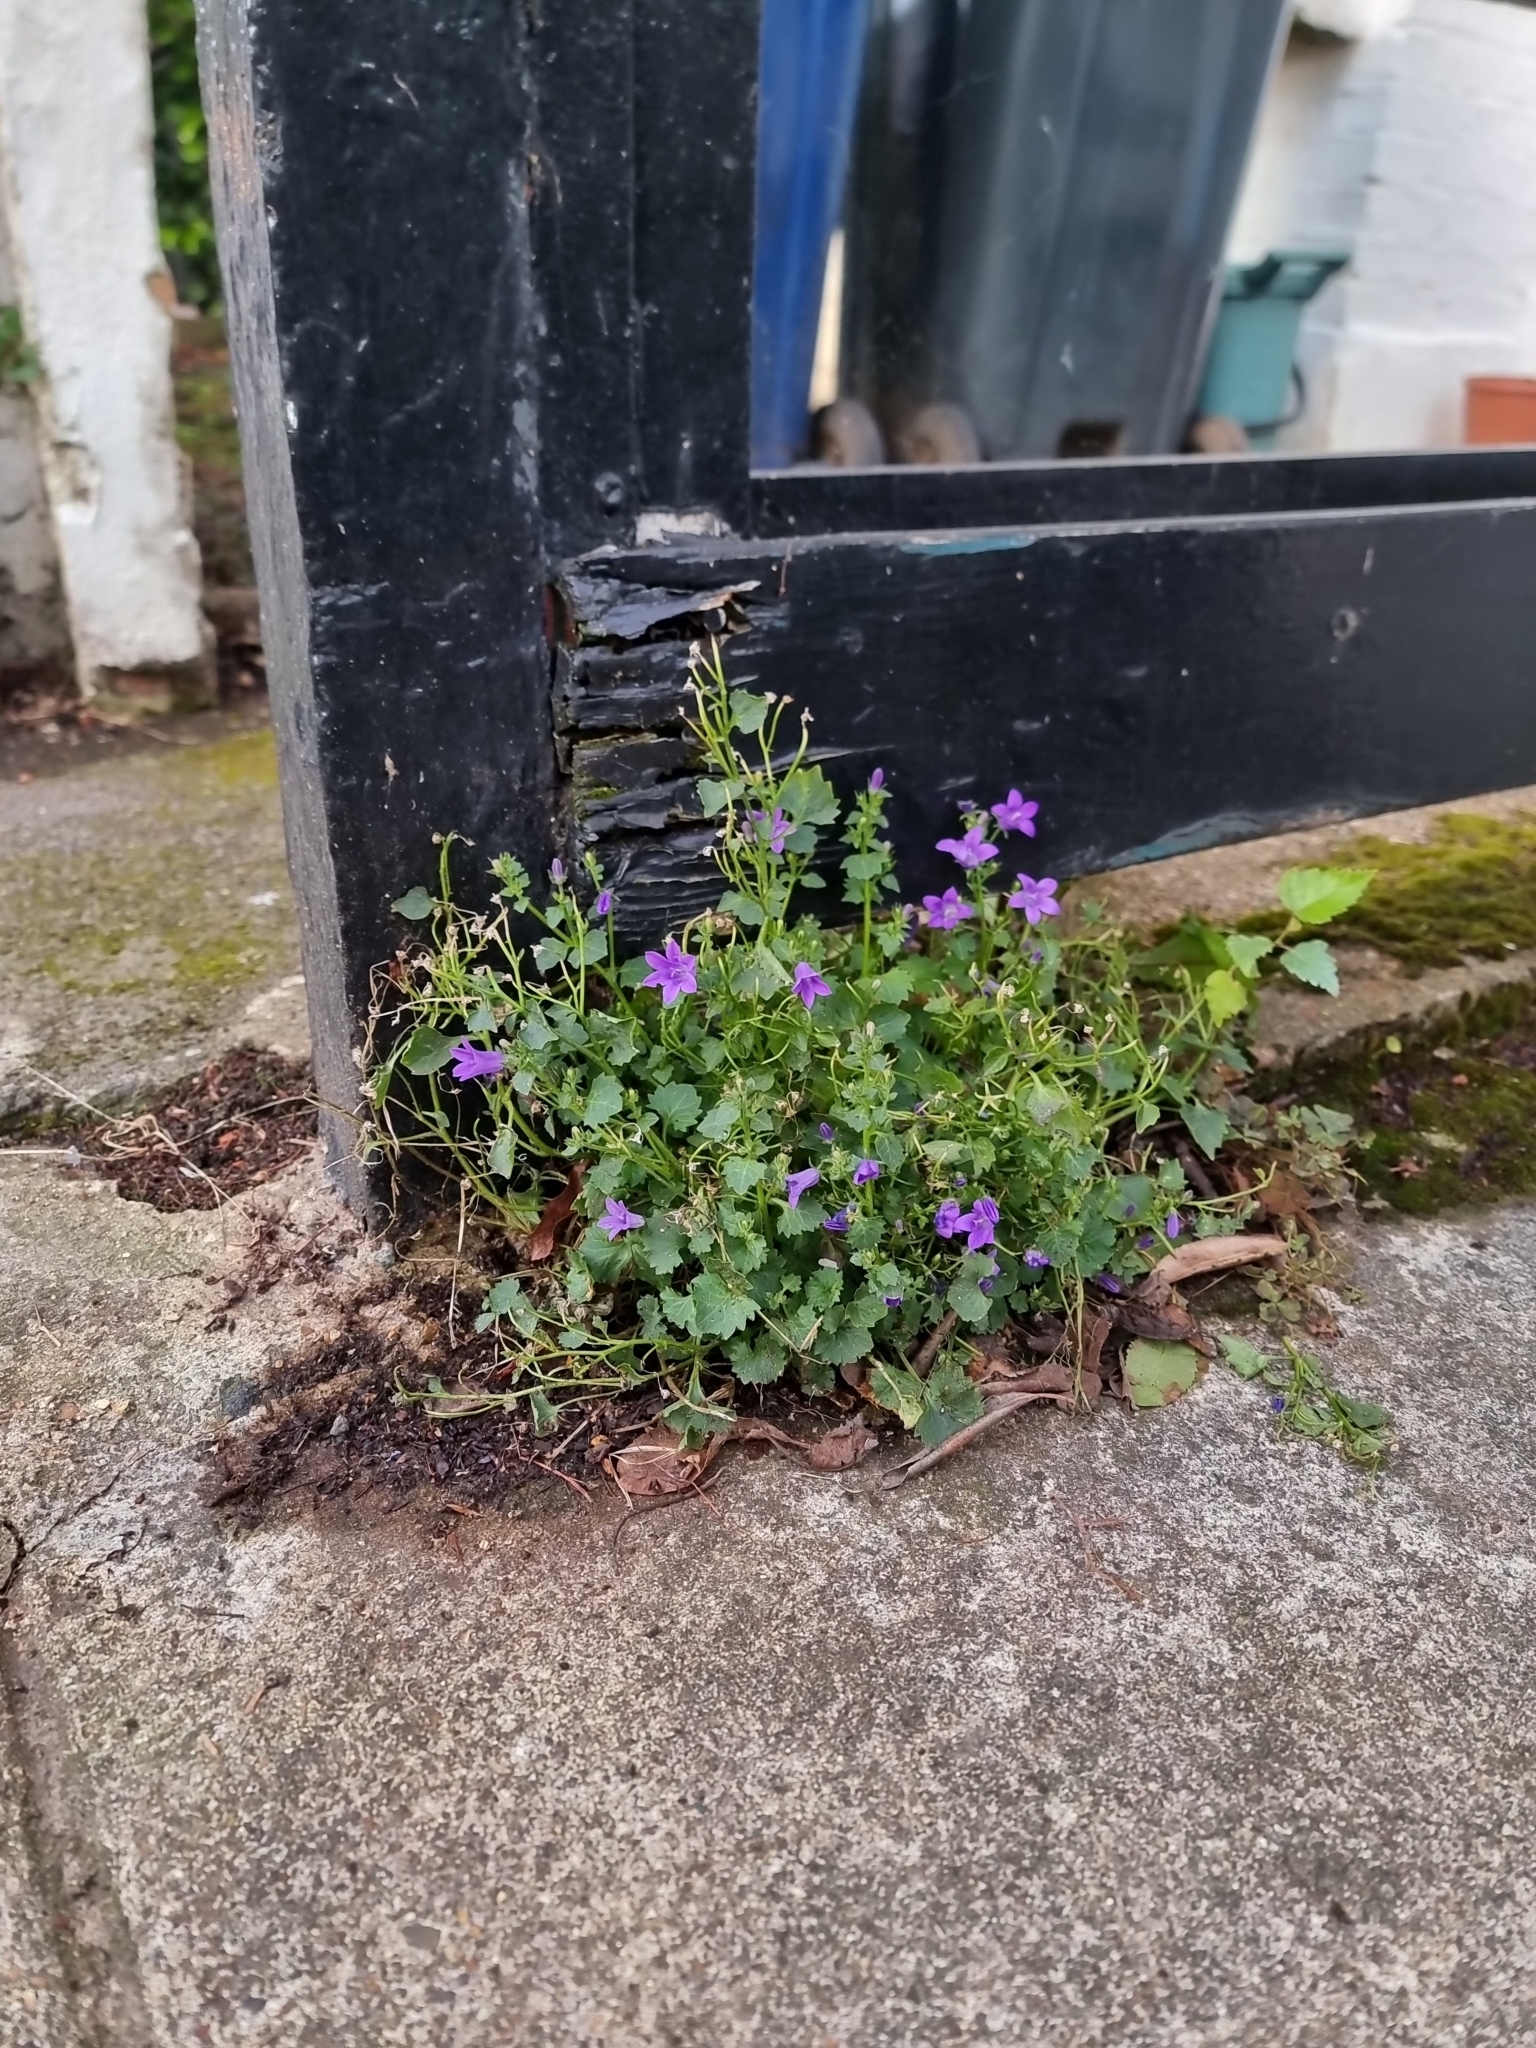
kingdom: Plantae
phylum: Tracheophyta
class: Magnoliopsida
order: Asterales
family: Campanulaceae
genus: Campanula
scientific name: Campanula portenschlagiana
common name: Adria bellflower
